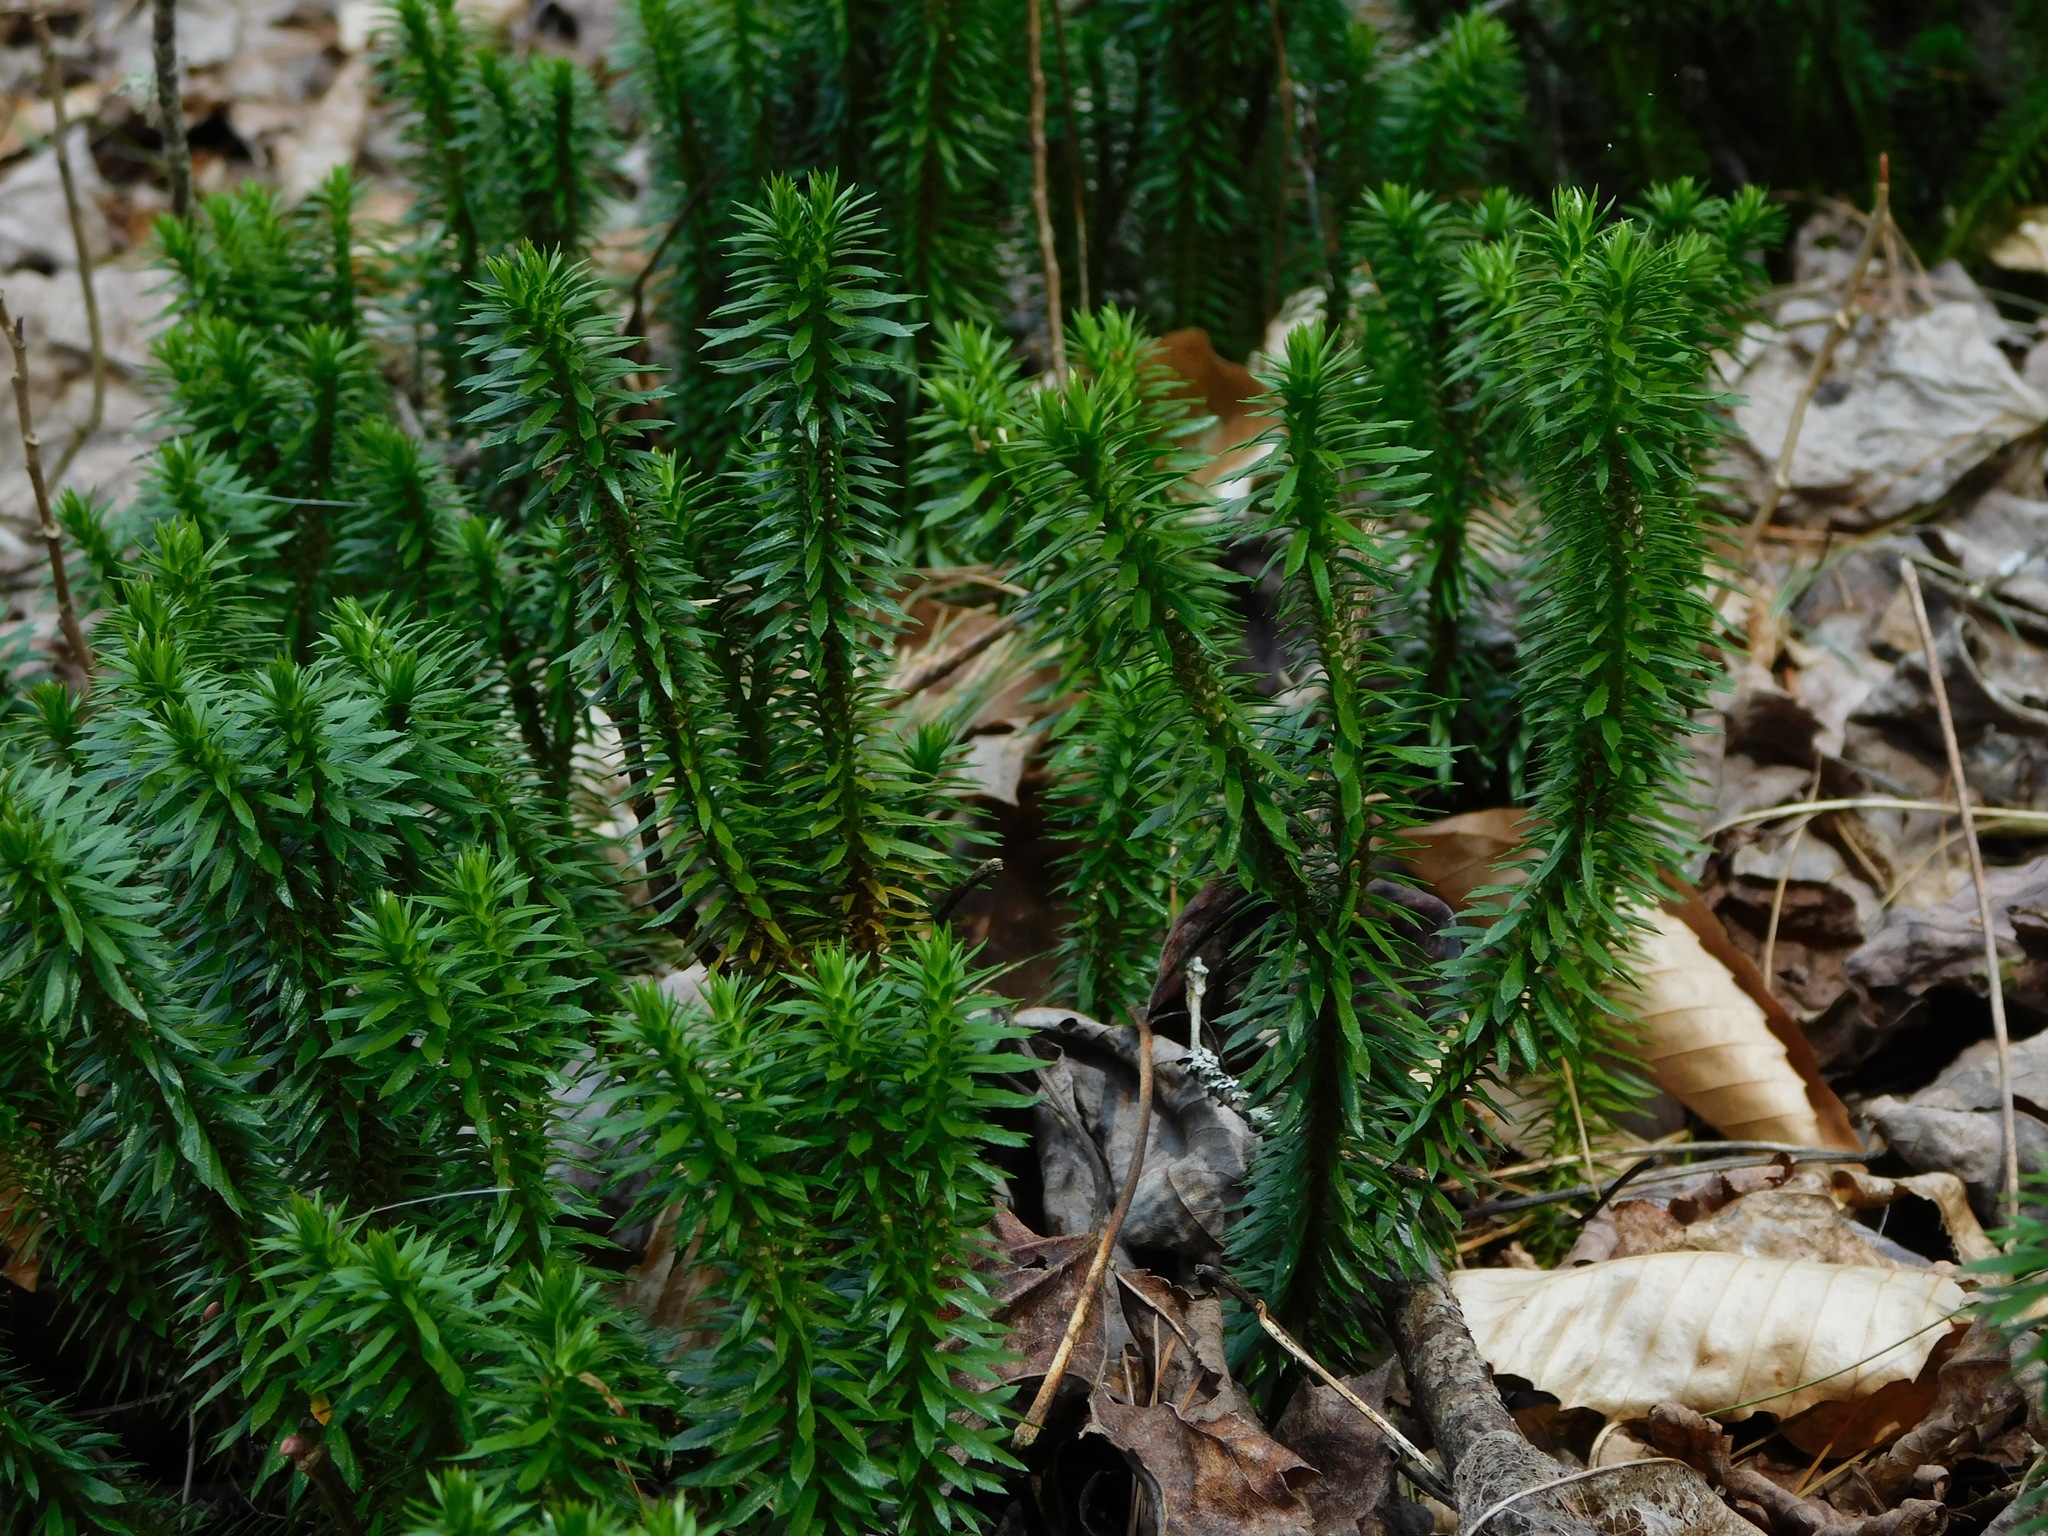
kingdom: Plantae
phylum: Tracheophyta
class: Lycopodiopsida
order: Lycopodiales
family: Lycopodiaceae
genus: Huperzia
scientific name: Huperzia lucidula
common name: Shining clubmoss
